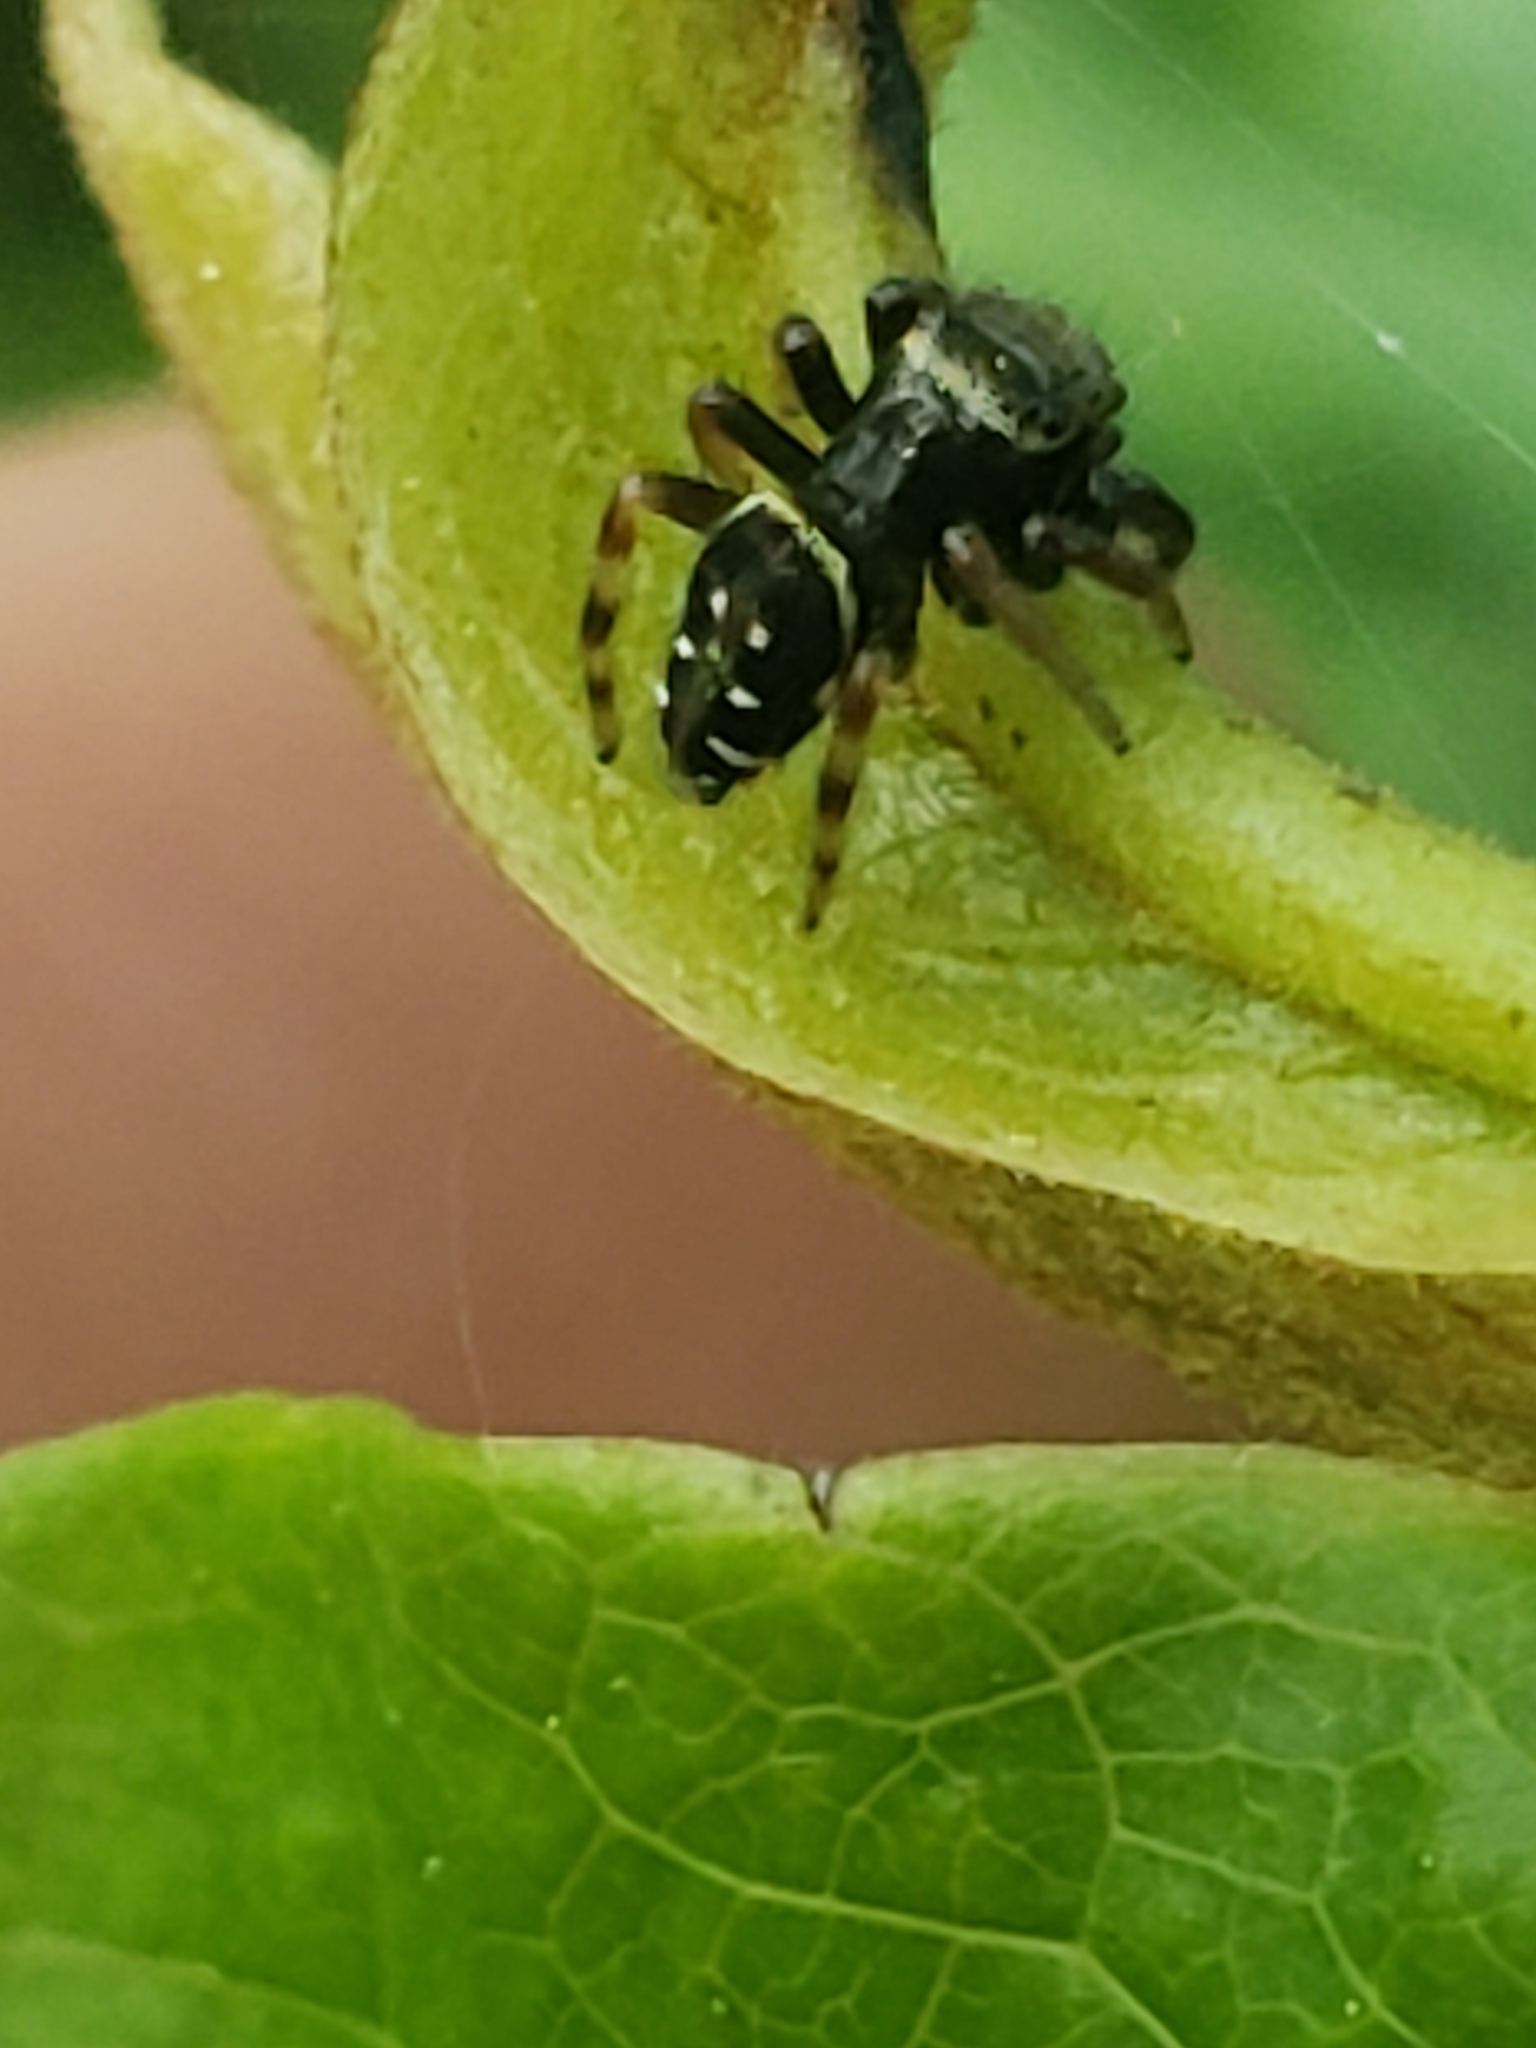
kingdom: Animalia
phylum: Arthropoda
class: Arachnida
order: Araneae
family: Salticidae
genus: Paraphidippus
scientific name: Paraphidippus aurantius
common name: Jumping spiders
